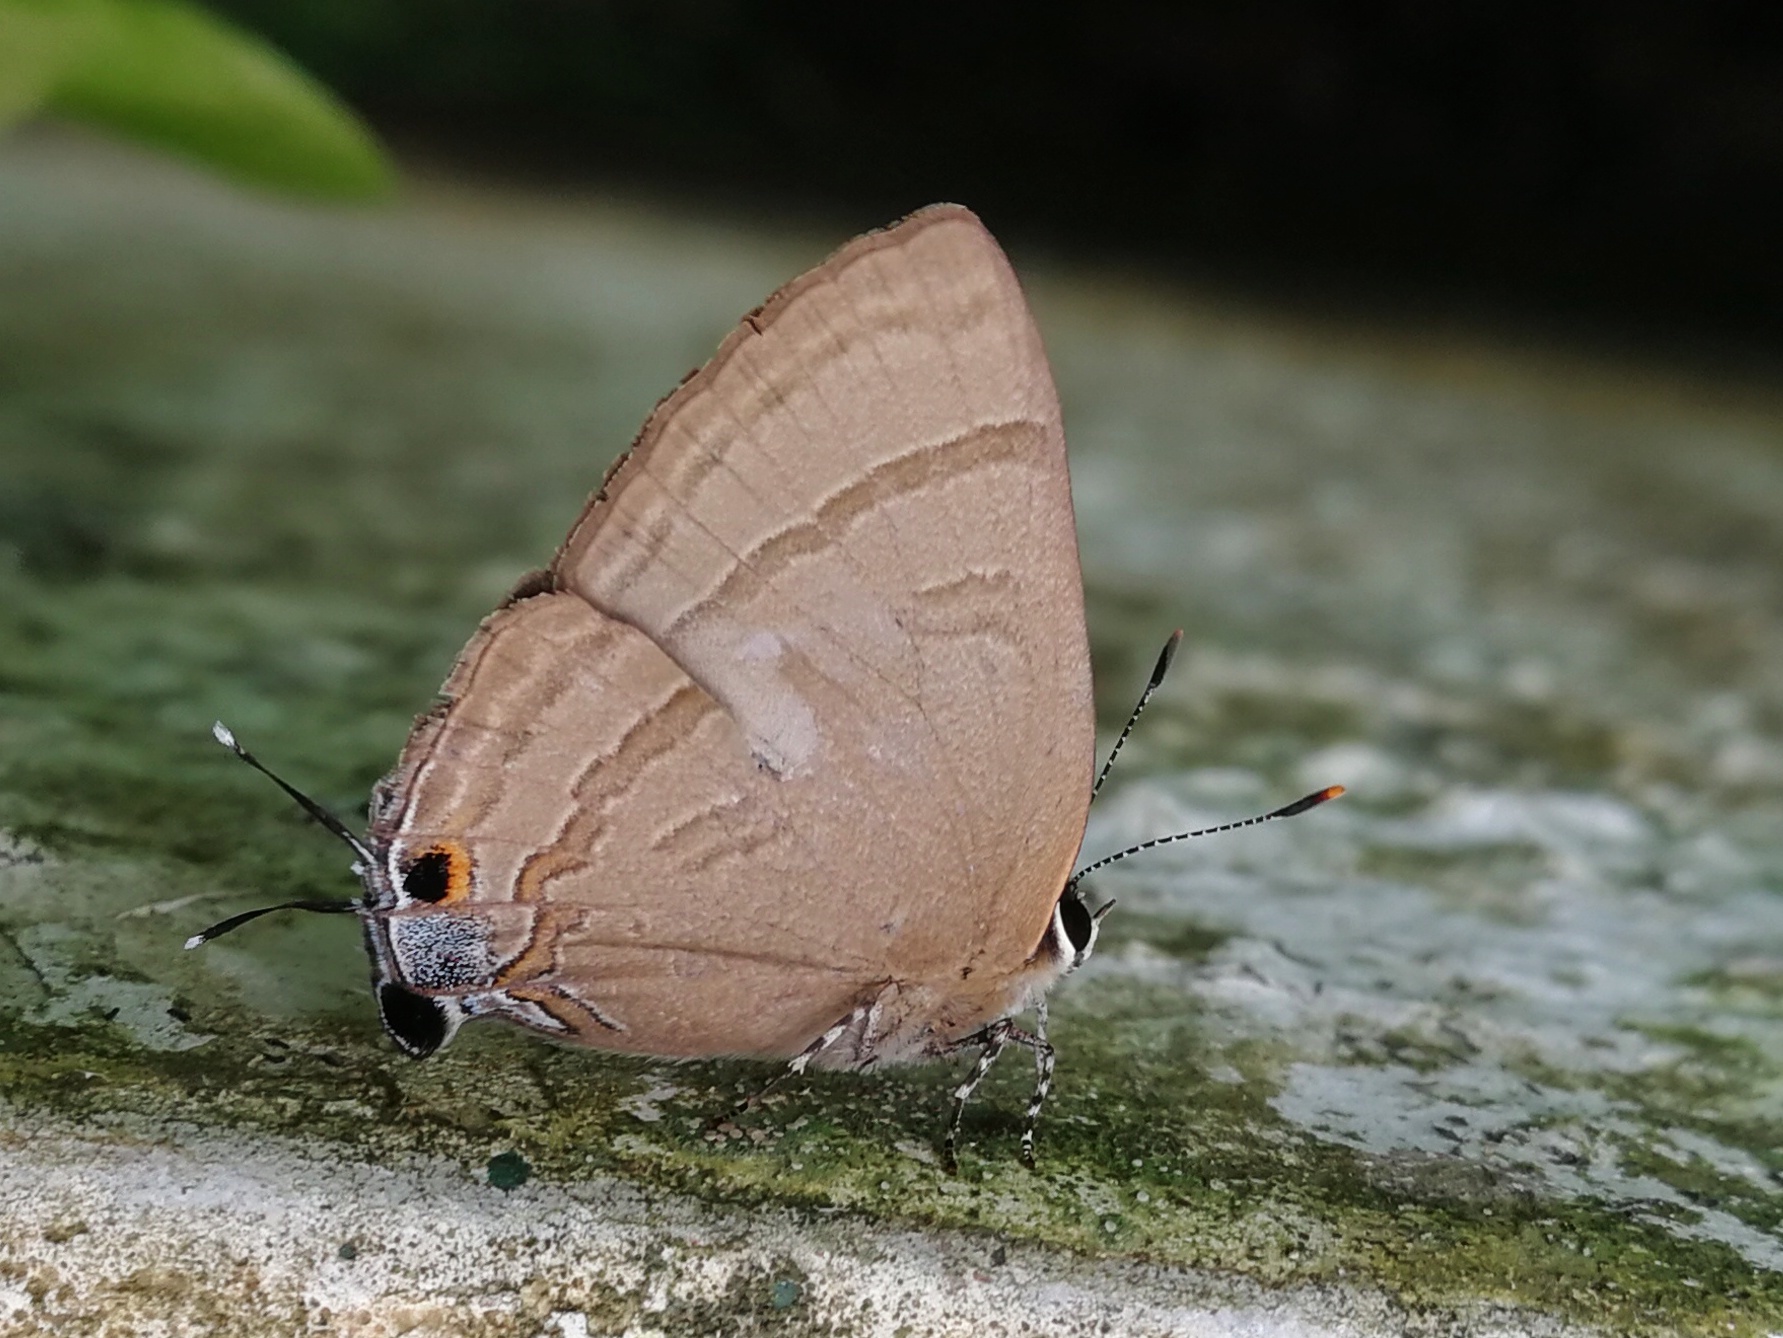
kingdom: Animalia
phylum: Arthropoda
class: Insecta
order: Lepidoptera
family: Lycaenidae
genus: Rapala
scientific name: Rapala manea
